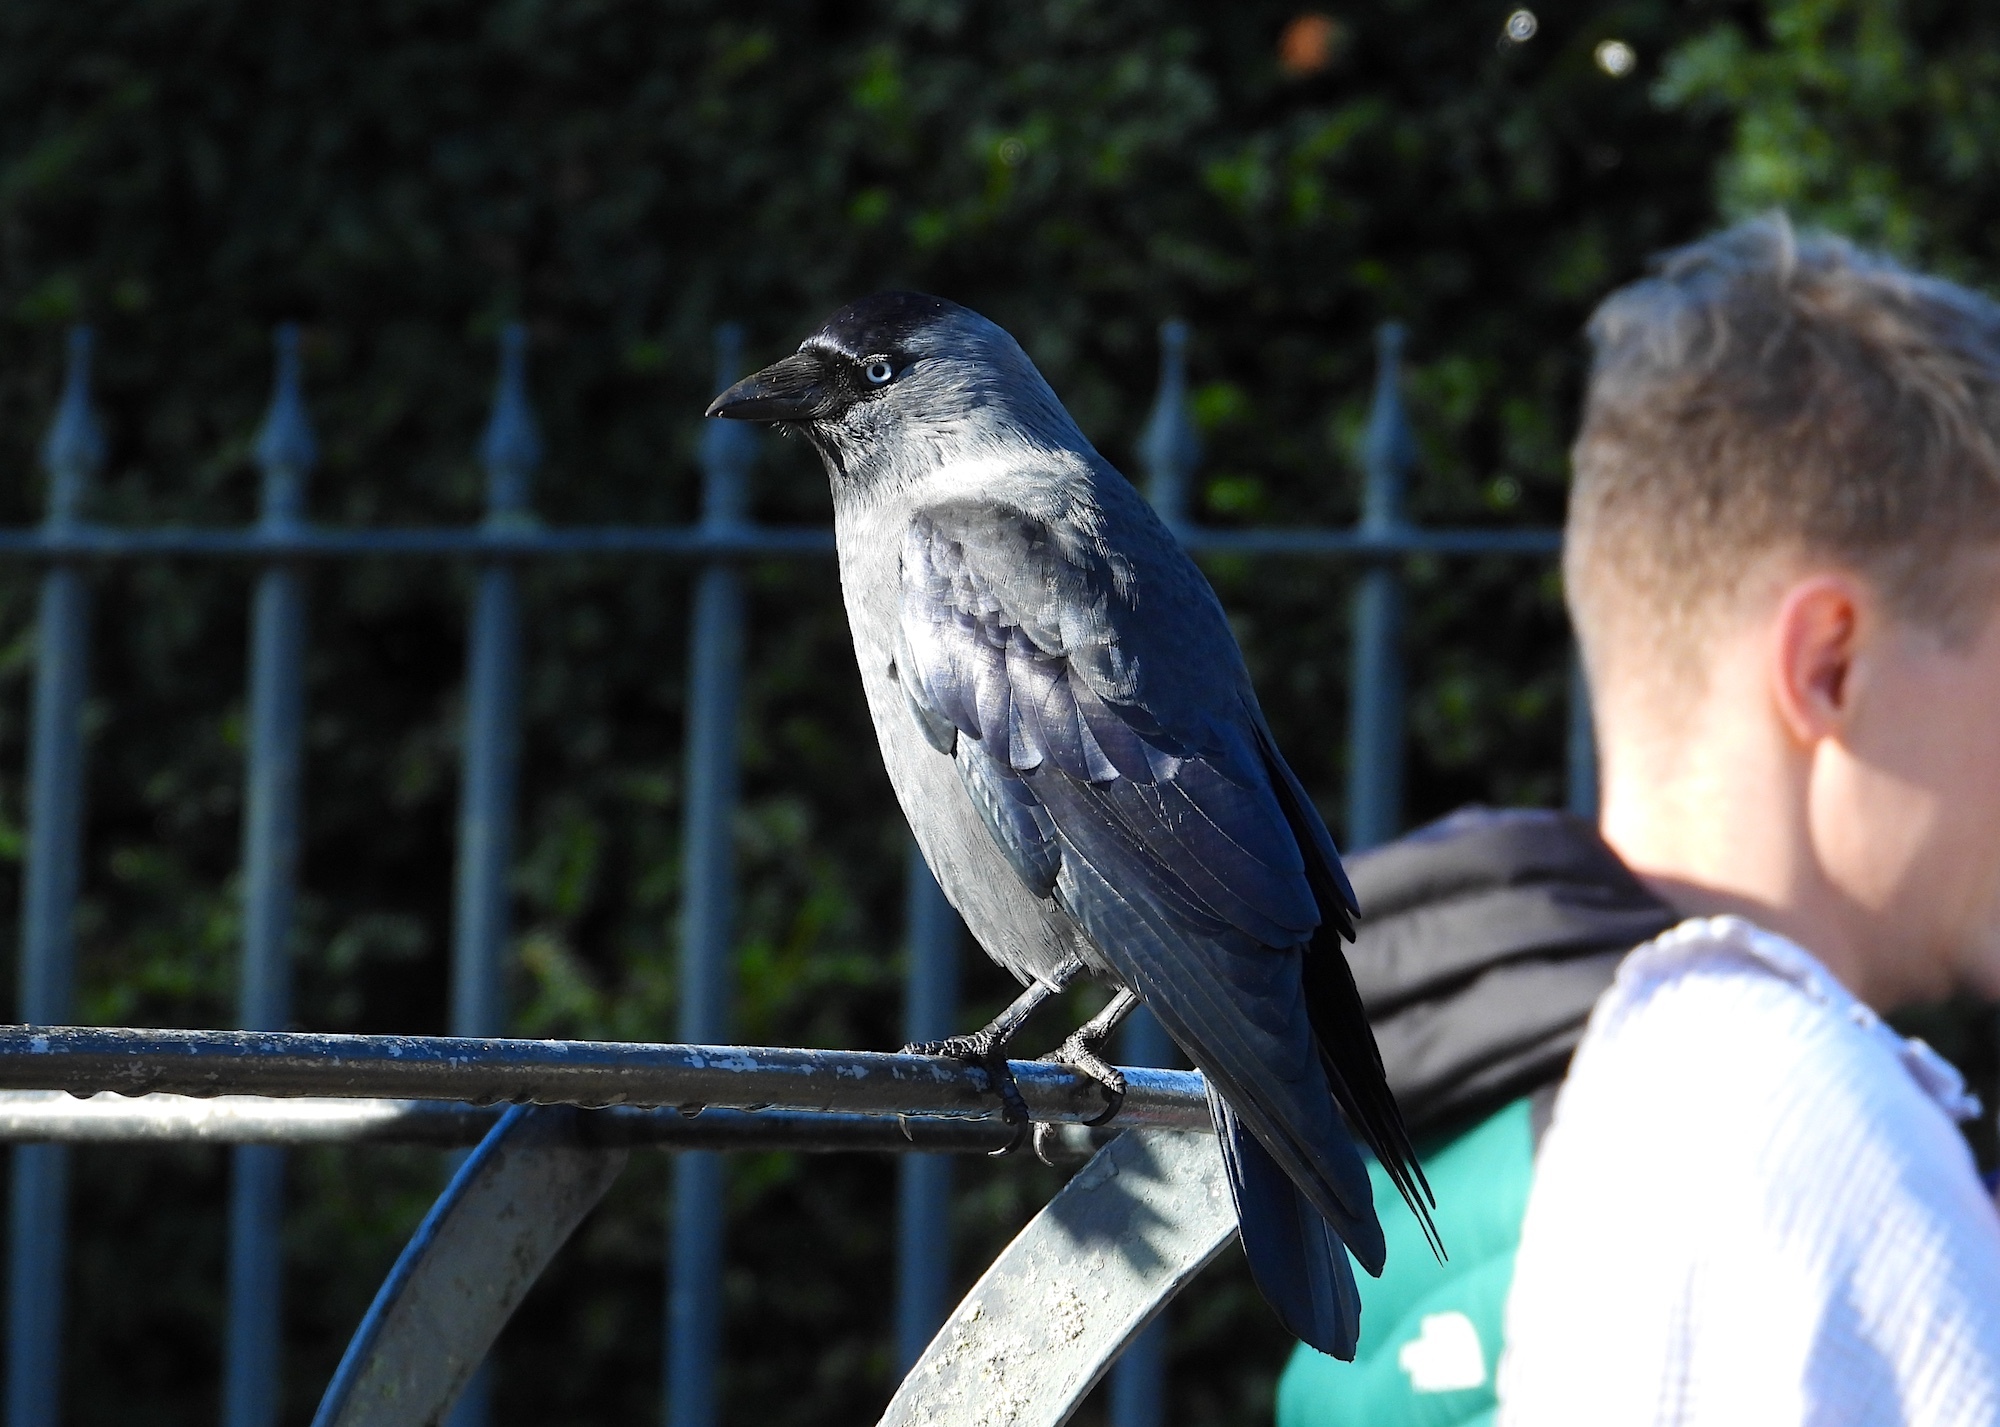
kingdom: Animalia
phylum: Chordata
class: Aves
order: Passeriformes
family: Corvidae
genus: Coloeus
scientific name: Coloeus monedula
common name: Western jackdaw
